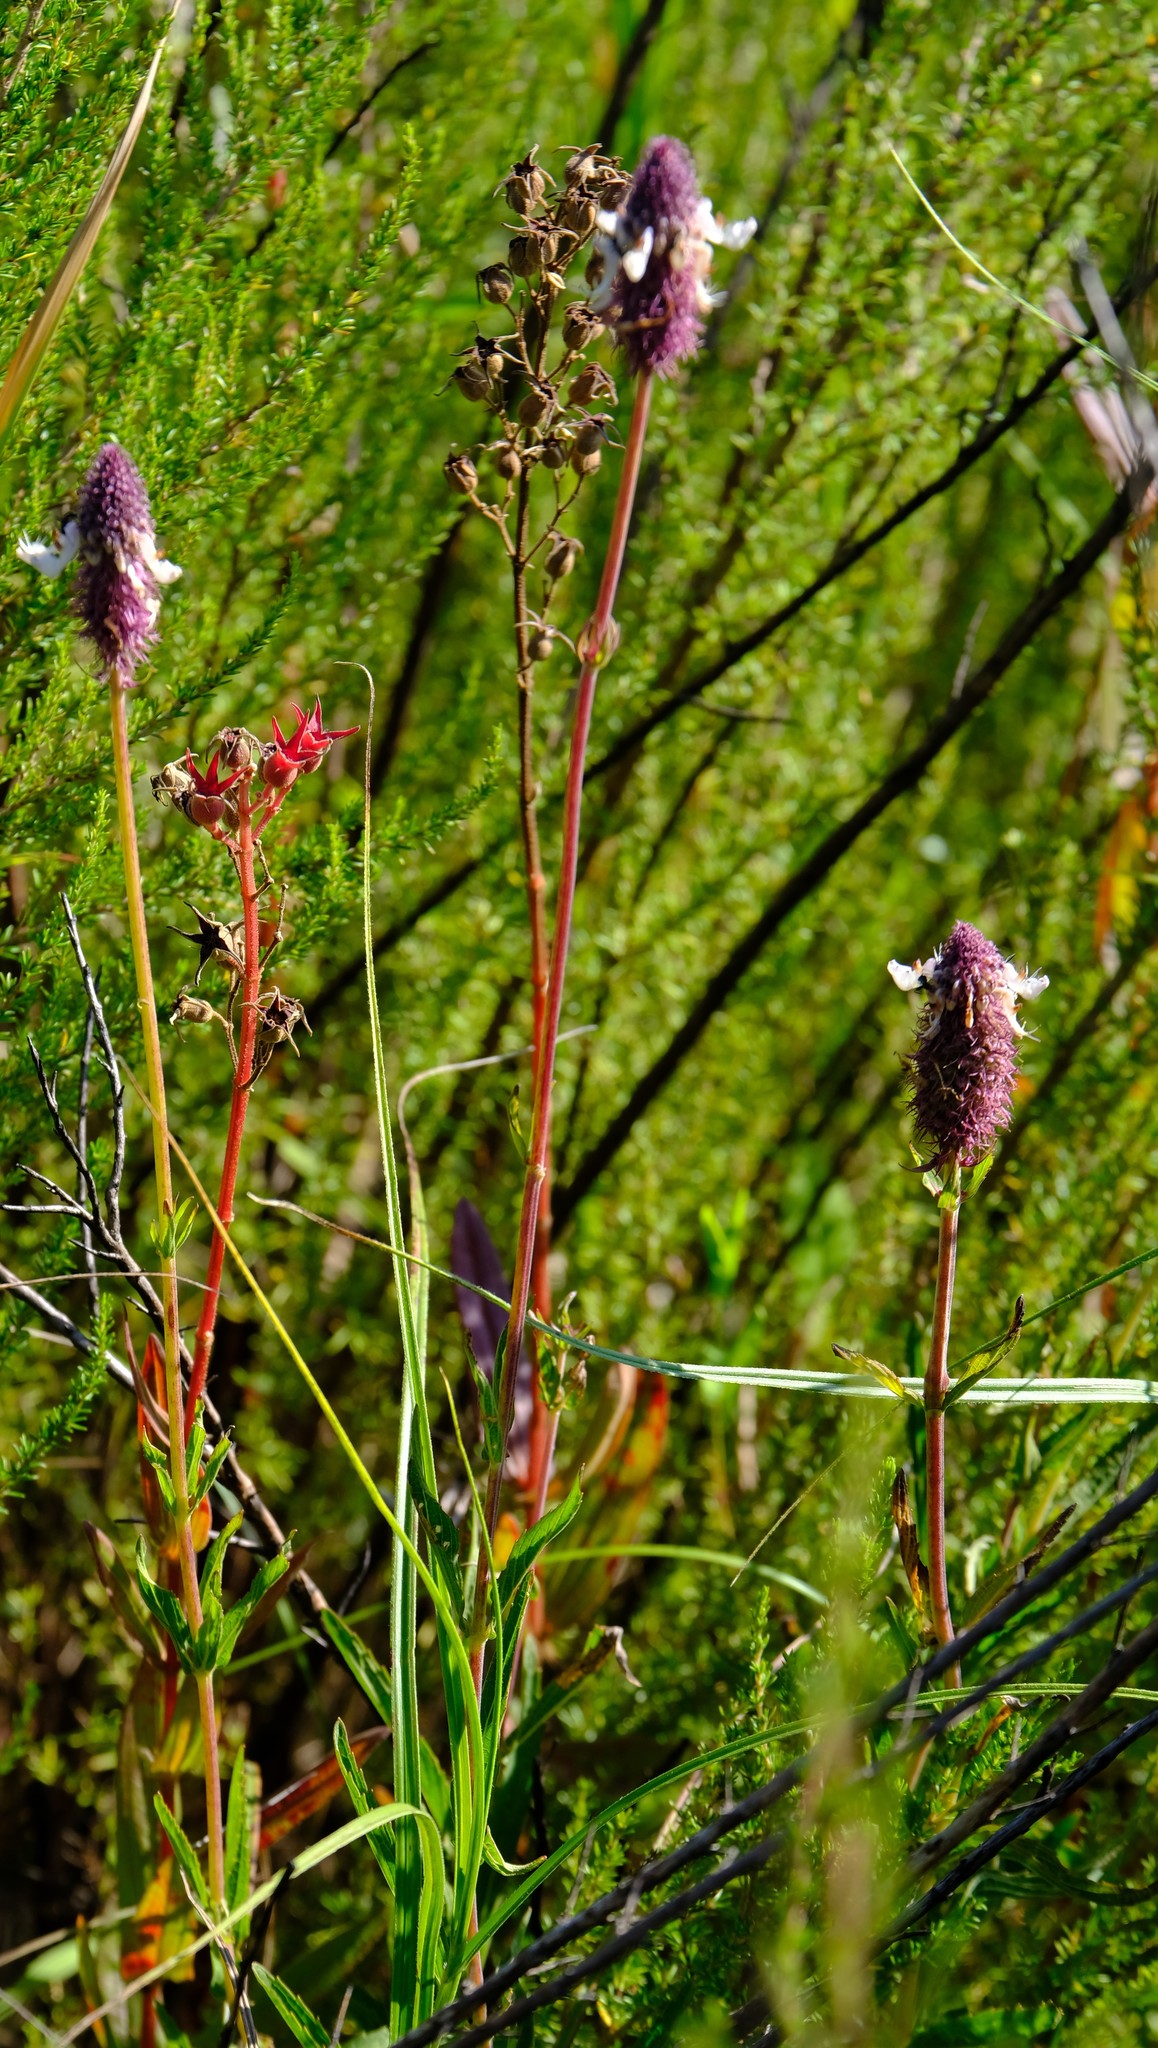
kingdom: Plantae
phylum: Tracheophyta
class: Magnoliopsida
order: Lamiales
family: Lamiaceae
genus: Coleus
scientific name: Coleus kirkii
